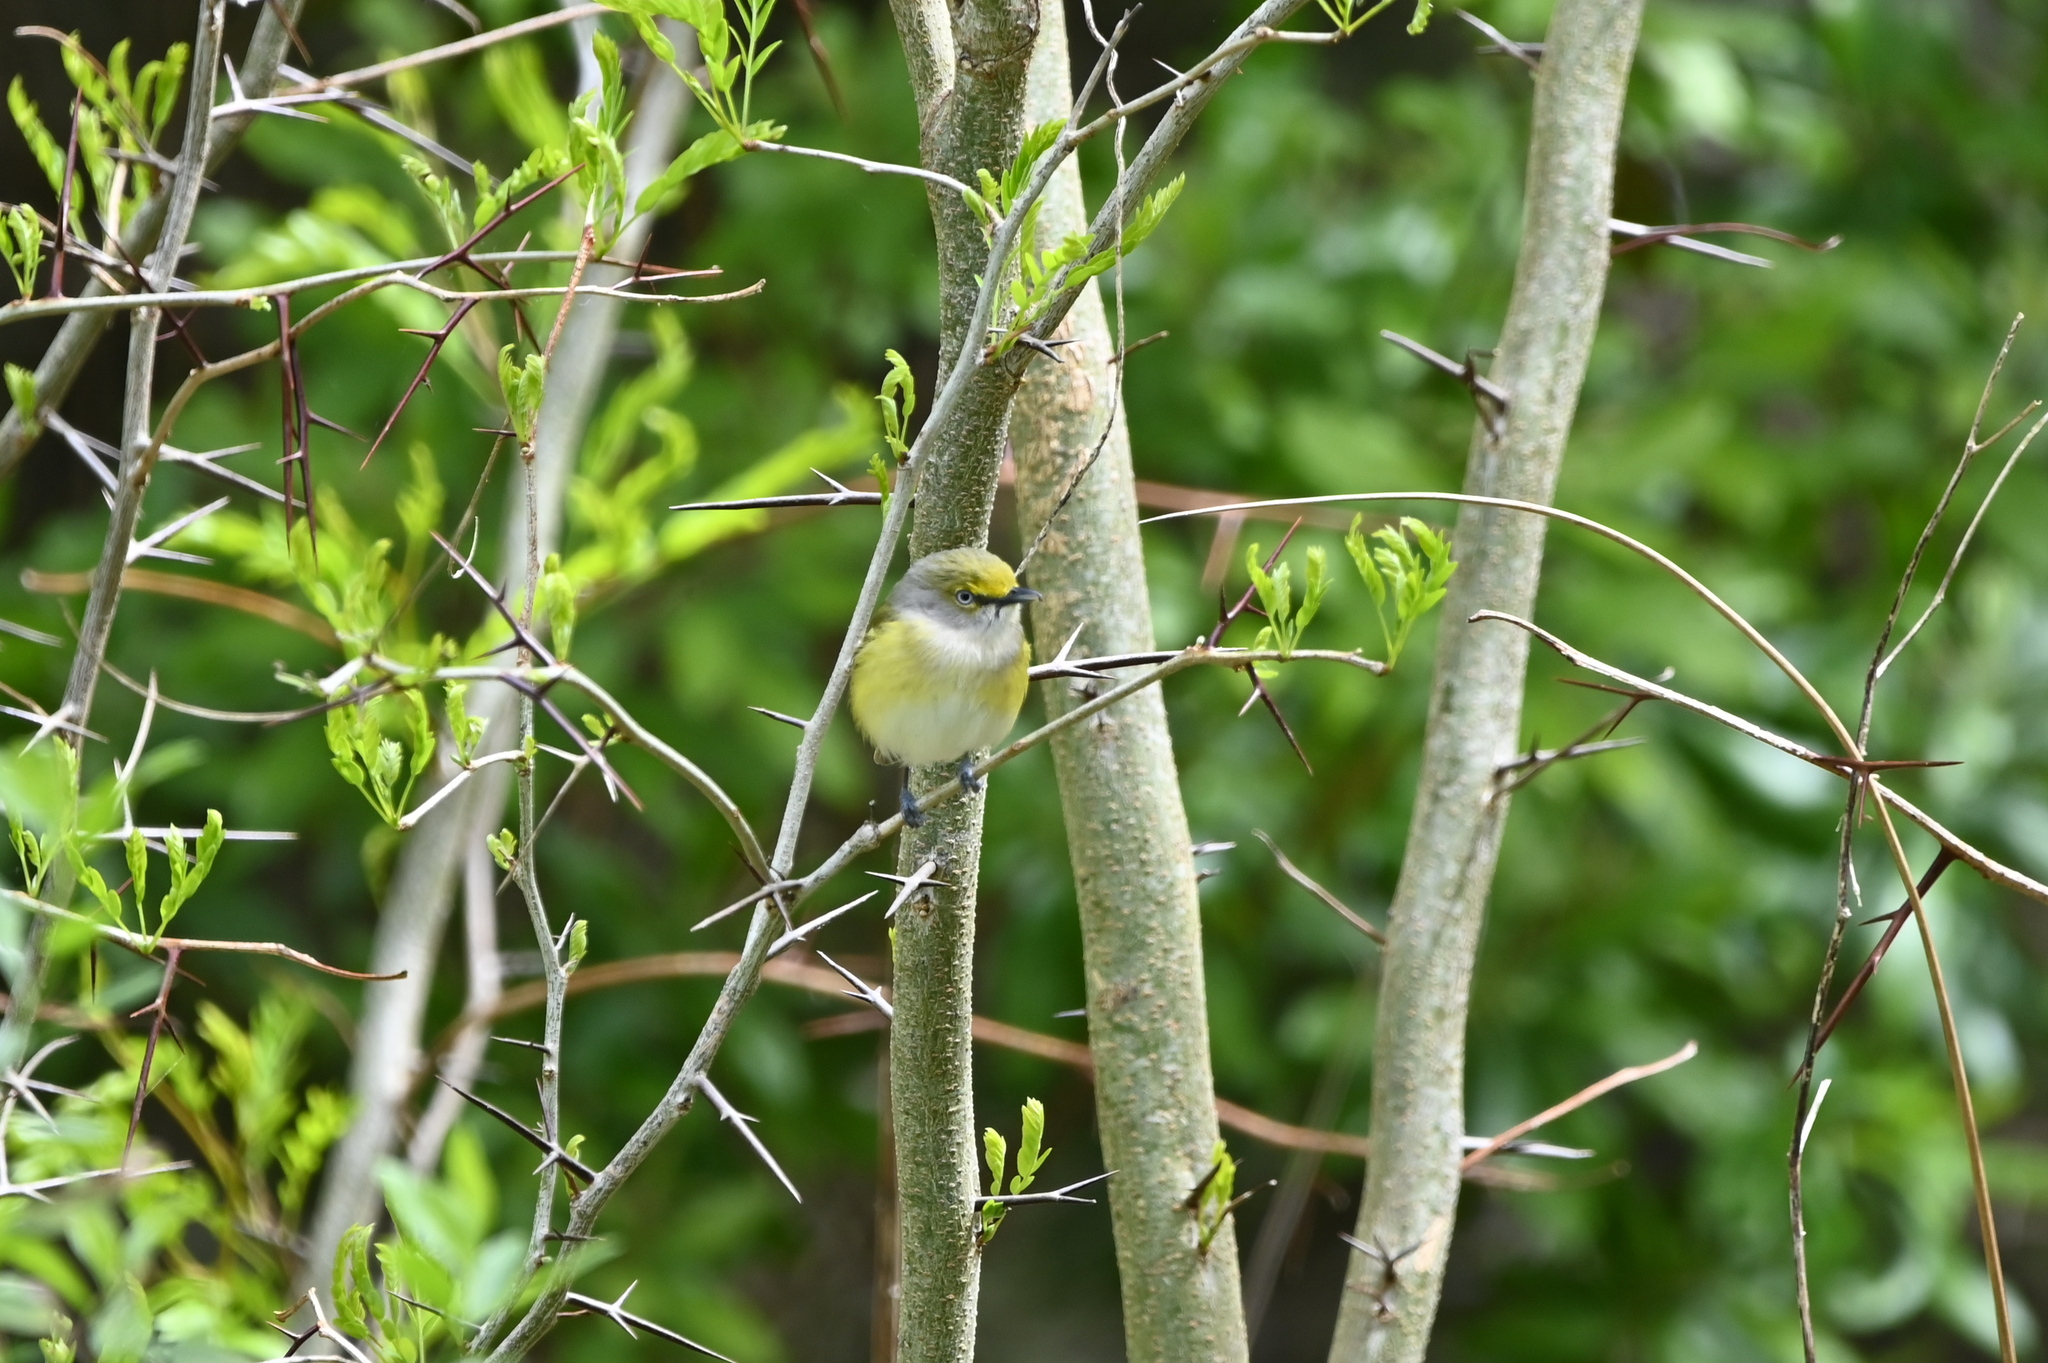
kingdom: Animalia
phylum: Chordata
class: Aves
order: Passeriformes
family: Vireonidae
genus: Vireo
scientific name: Vireo griseus
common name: White-eyed vireo
